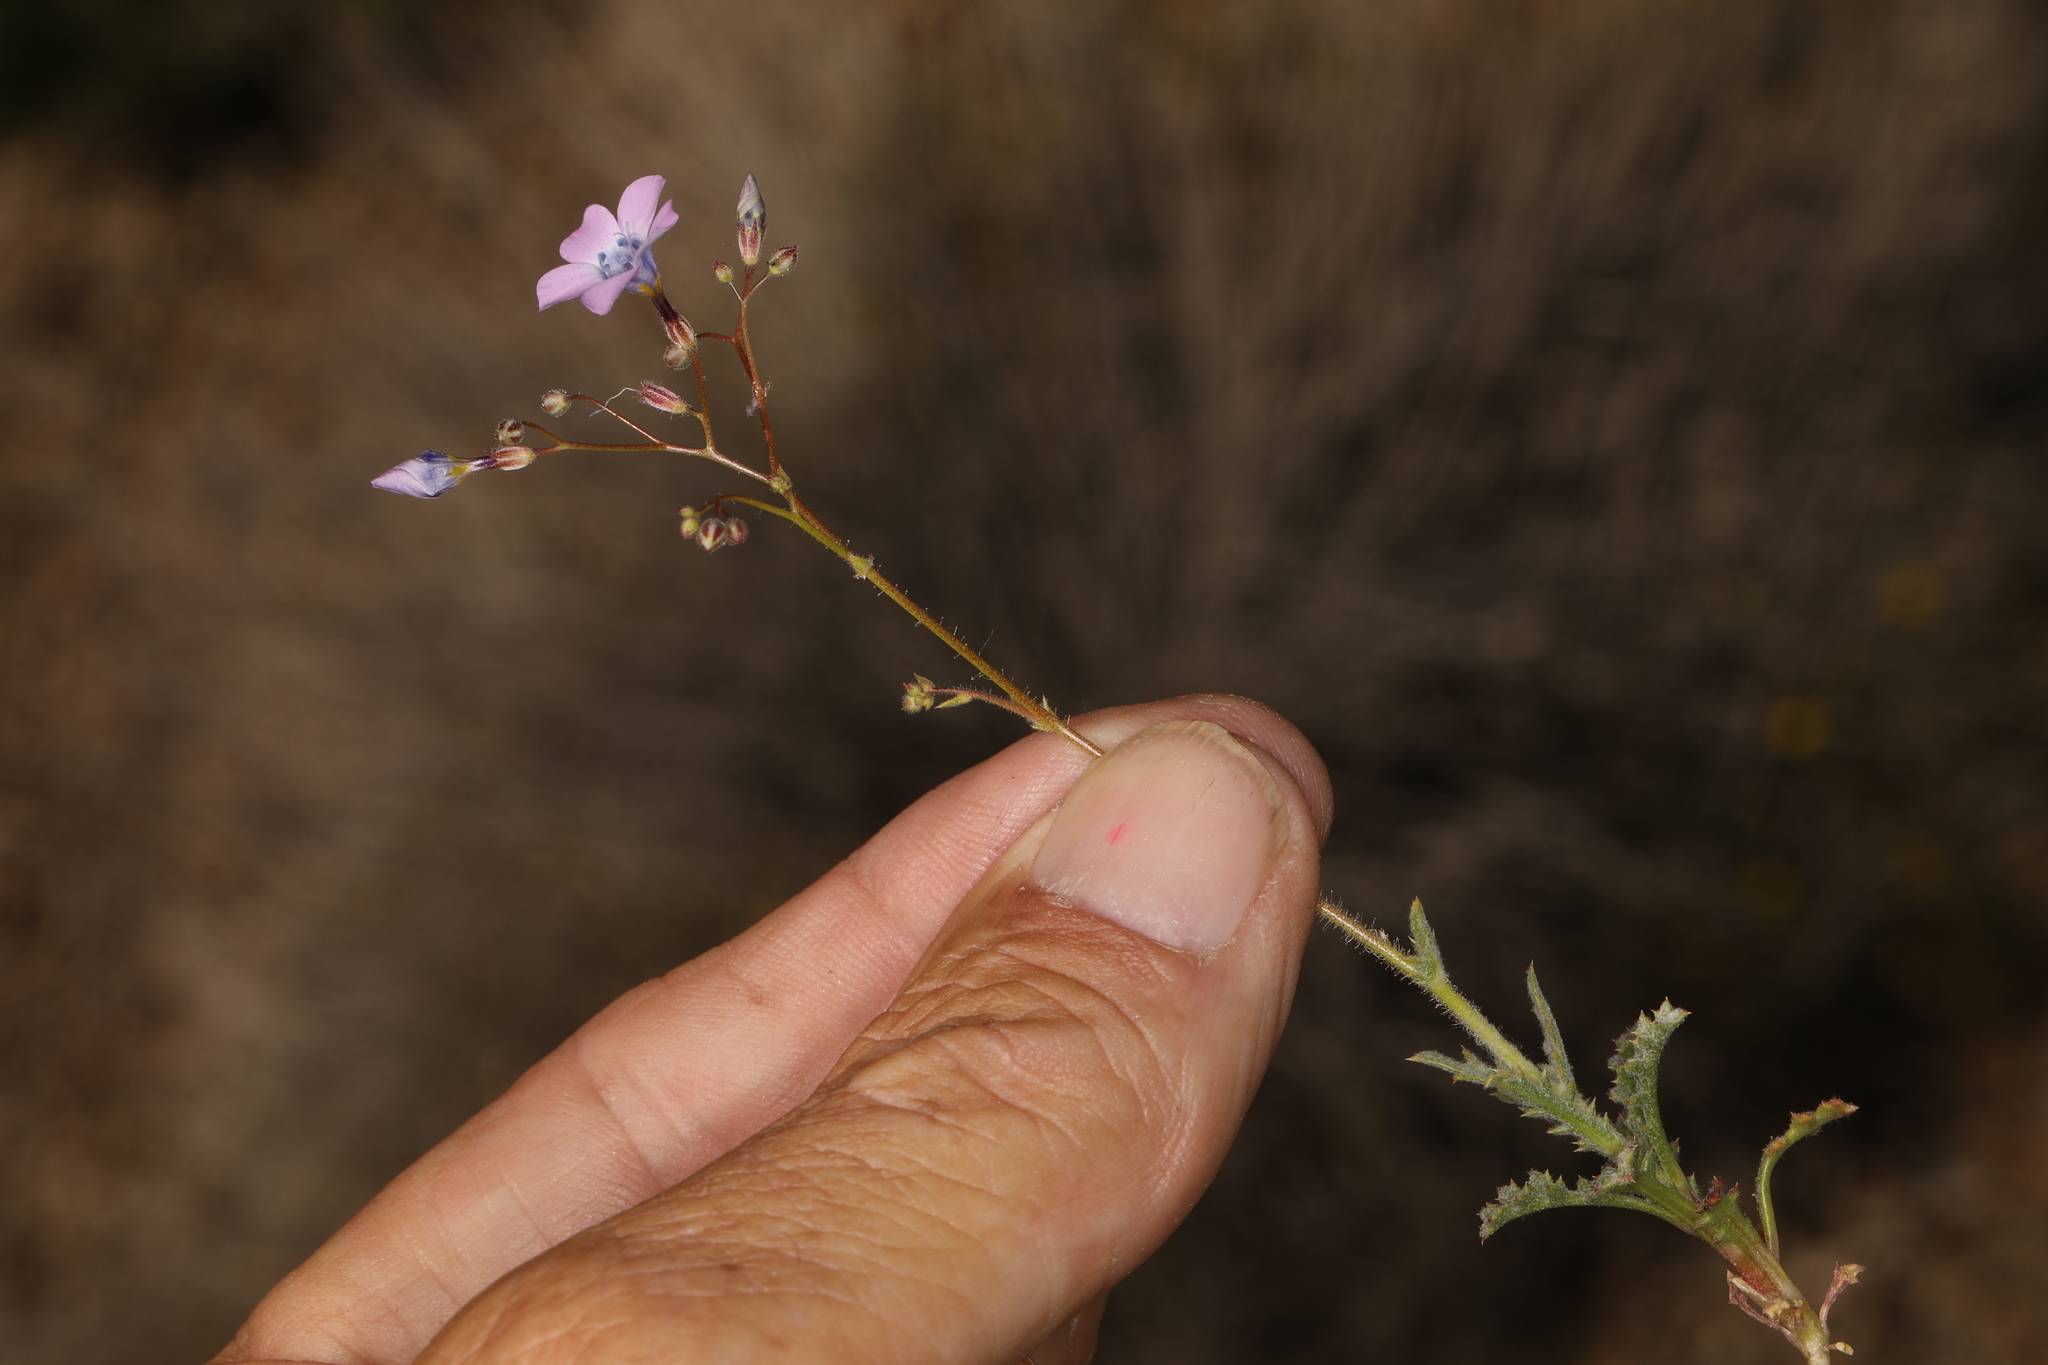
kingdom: Plantae
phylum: Tracheophyta
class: Magnoliopsida
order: Ericales
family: Polemoniaceae
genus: Gilia
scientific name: Gilia cana
